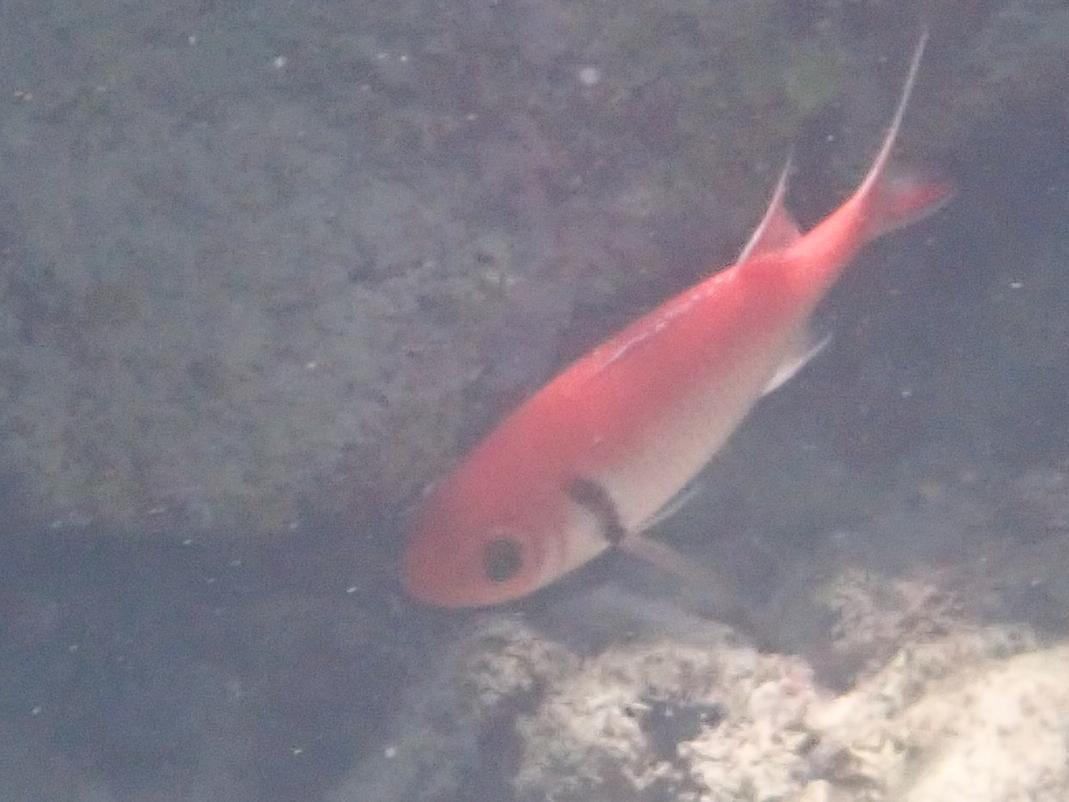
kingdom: Animalia
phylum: Chordata
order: Beryciformes
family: Holocentridae
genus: Myripristis
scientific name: Myripristis jacobus
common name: Blackbar soldierfish
